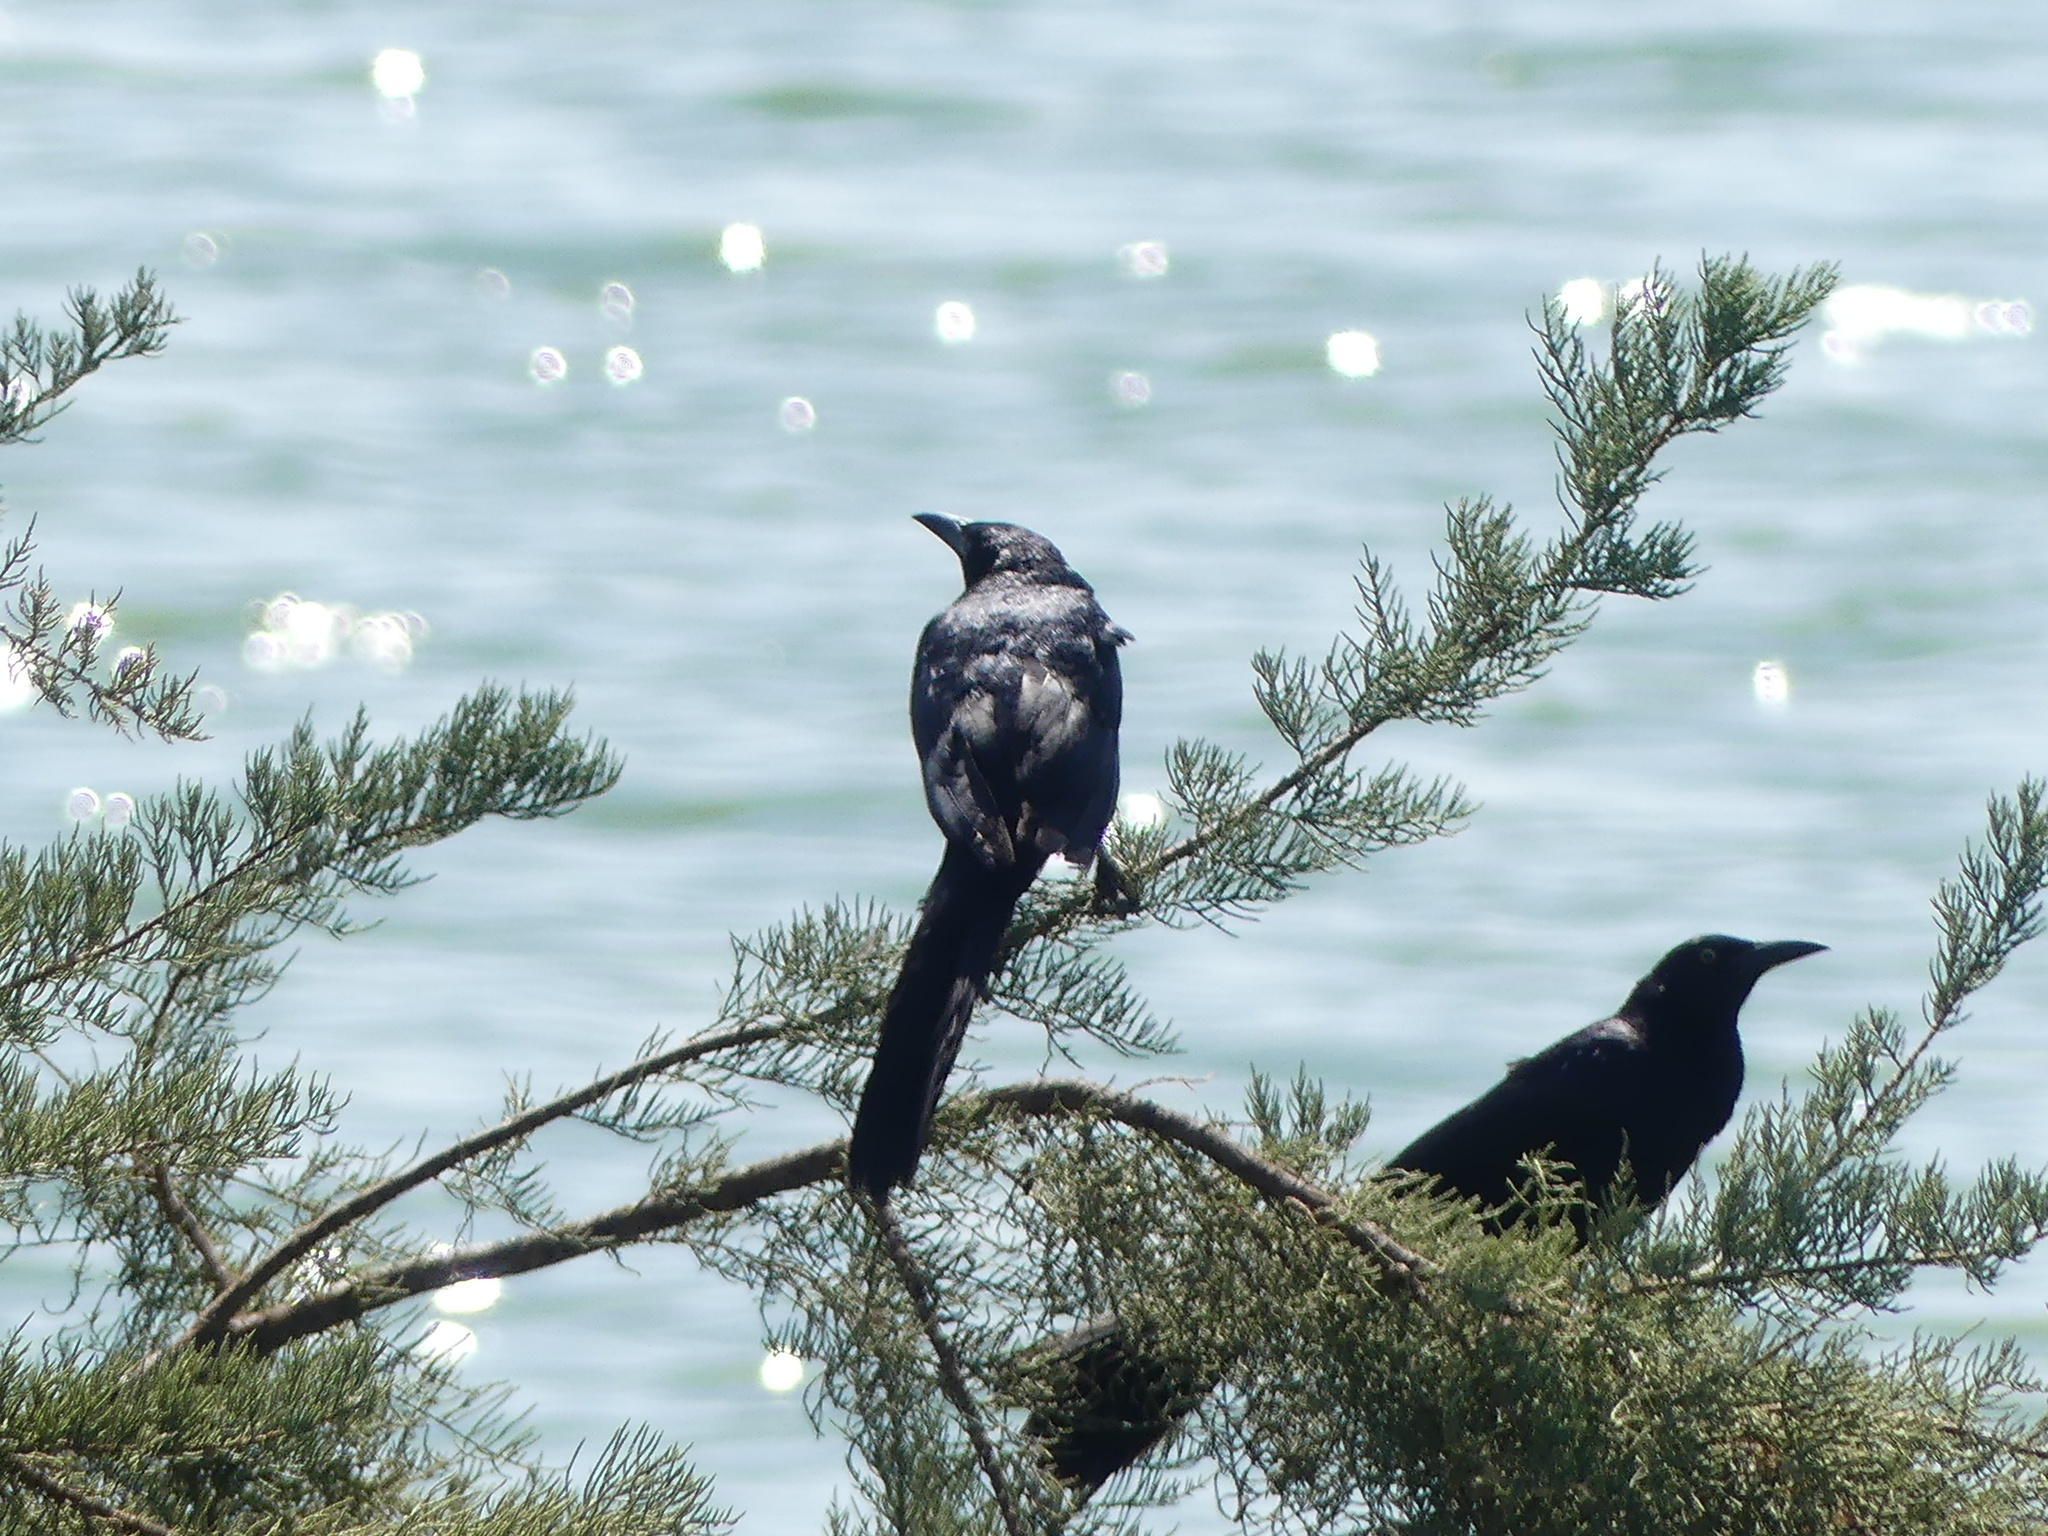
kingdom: Animalia
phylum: Chordata
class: Aves
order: Passeriformes
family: Icteridae
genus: Quiscalus
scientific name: Quiscalus mexicanus
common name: Great-tailed grackle
